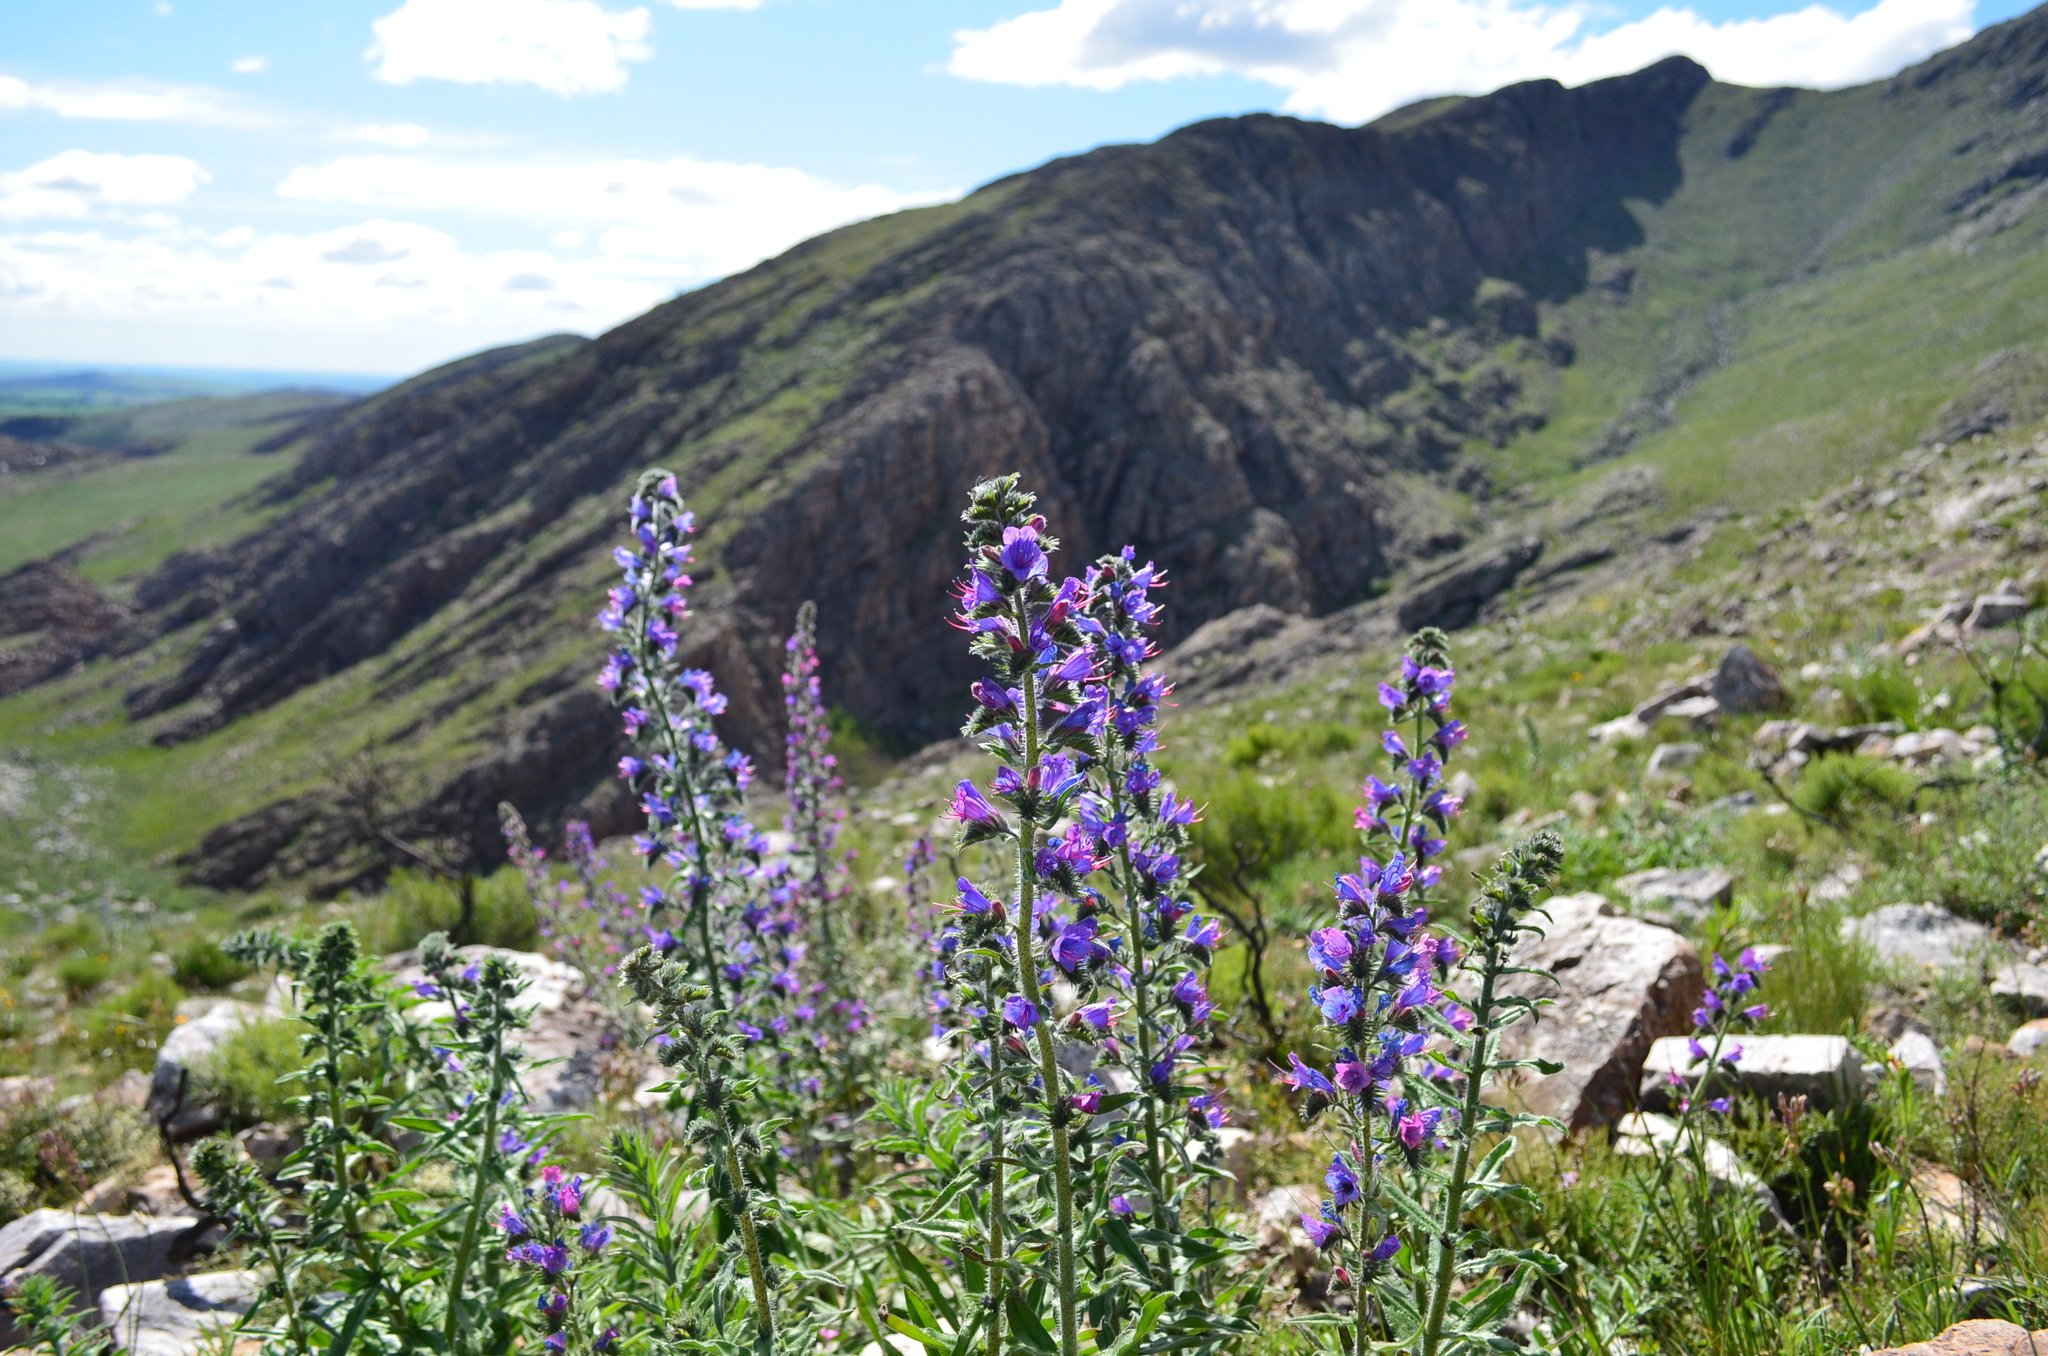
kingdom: Plantae
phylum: Tracheophyta
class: Magnoliopsida
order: Boraginales
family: Boraginaceae
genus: Echium
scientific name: Echium vulgare
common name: Common viper's bugloss
